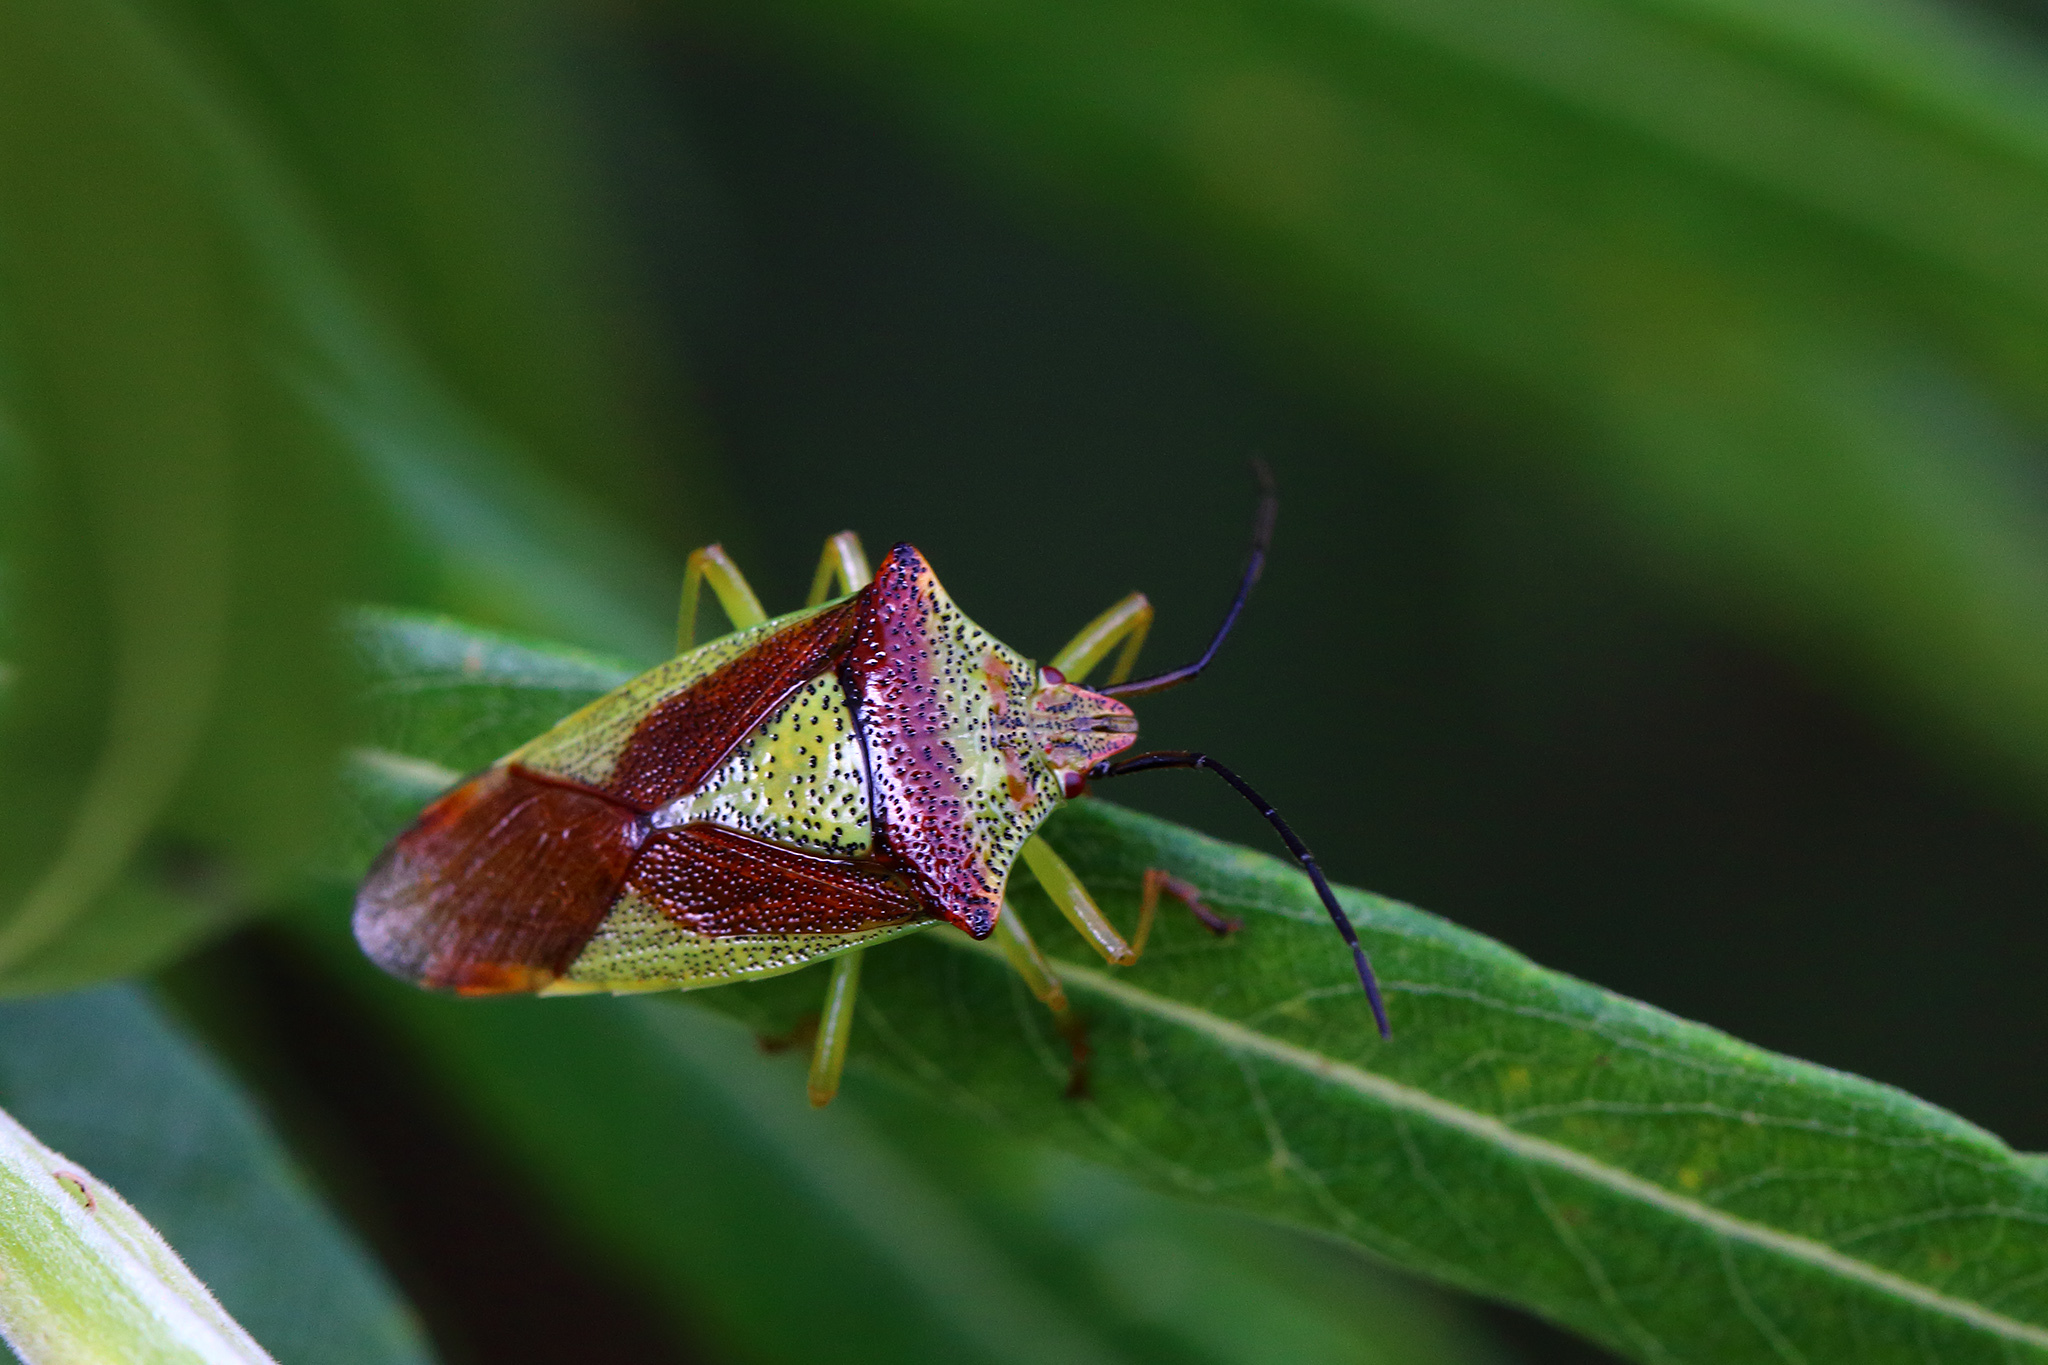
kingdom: Animalia
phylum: Arthropoda
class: Insecta
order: Hemiptera
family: Acanthosomatidae
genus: Acanthosoma
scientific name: Acanthosoma haemorrhoidale
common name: Hawthorn shieldbug
